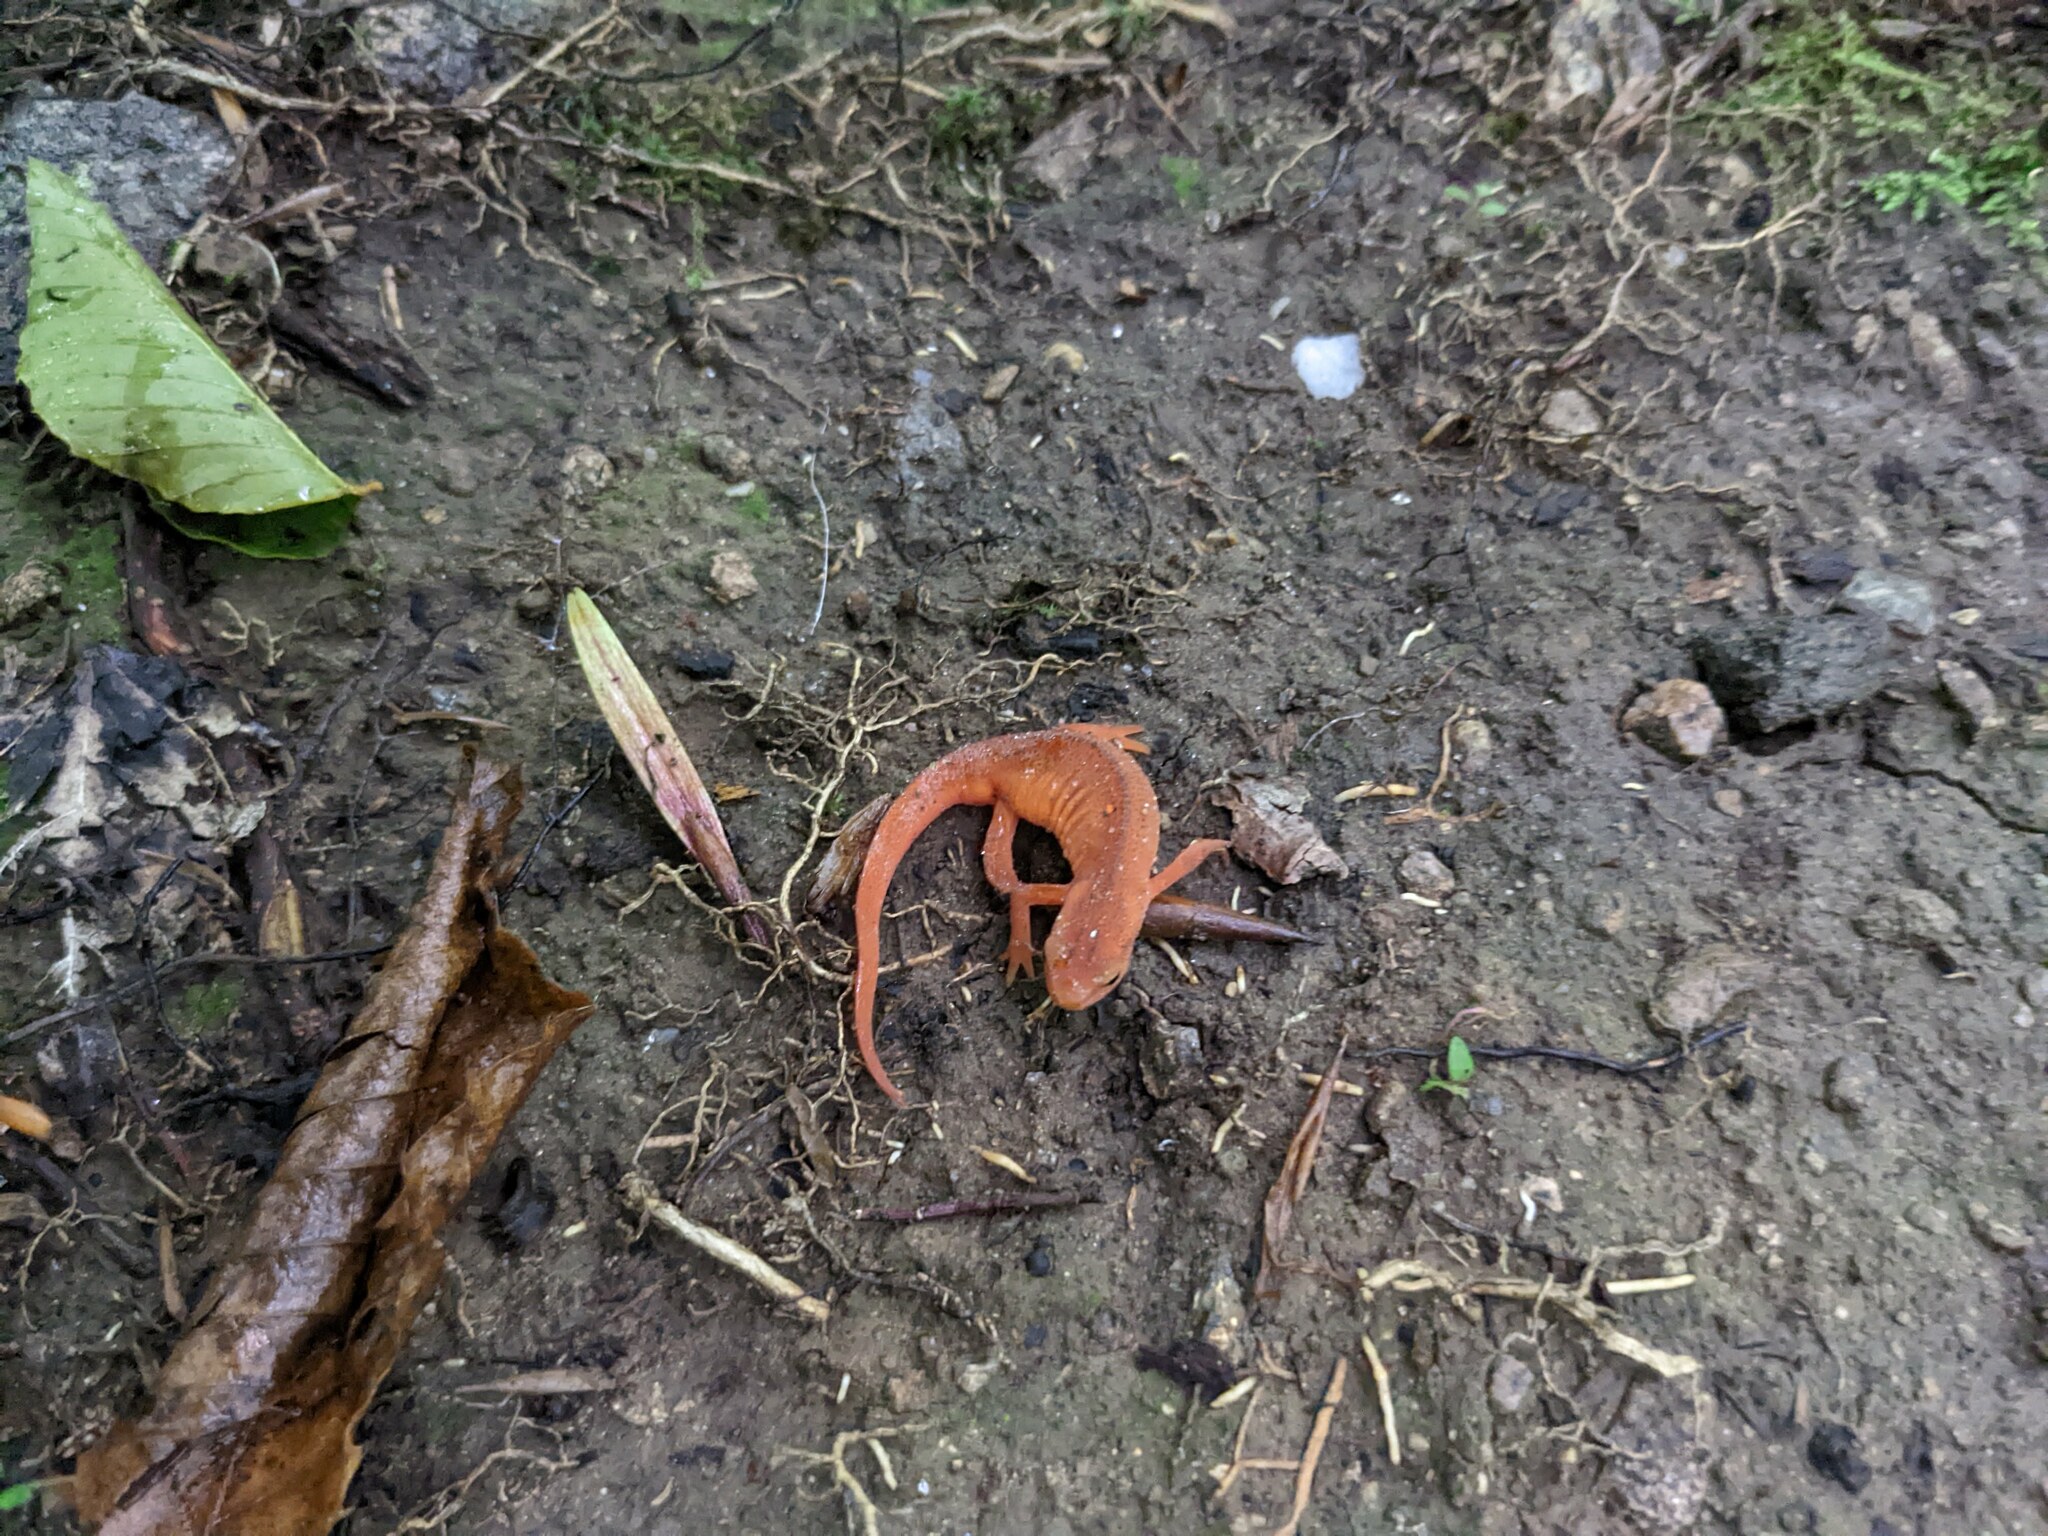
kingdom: Animalia
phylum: Chordata
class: Amphibia
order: Caudata
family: Salamandridae
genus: Notophthalmus
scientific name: Notophthalmus viridescens
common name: Eastern newt
